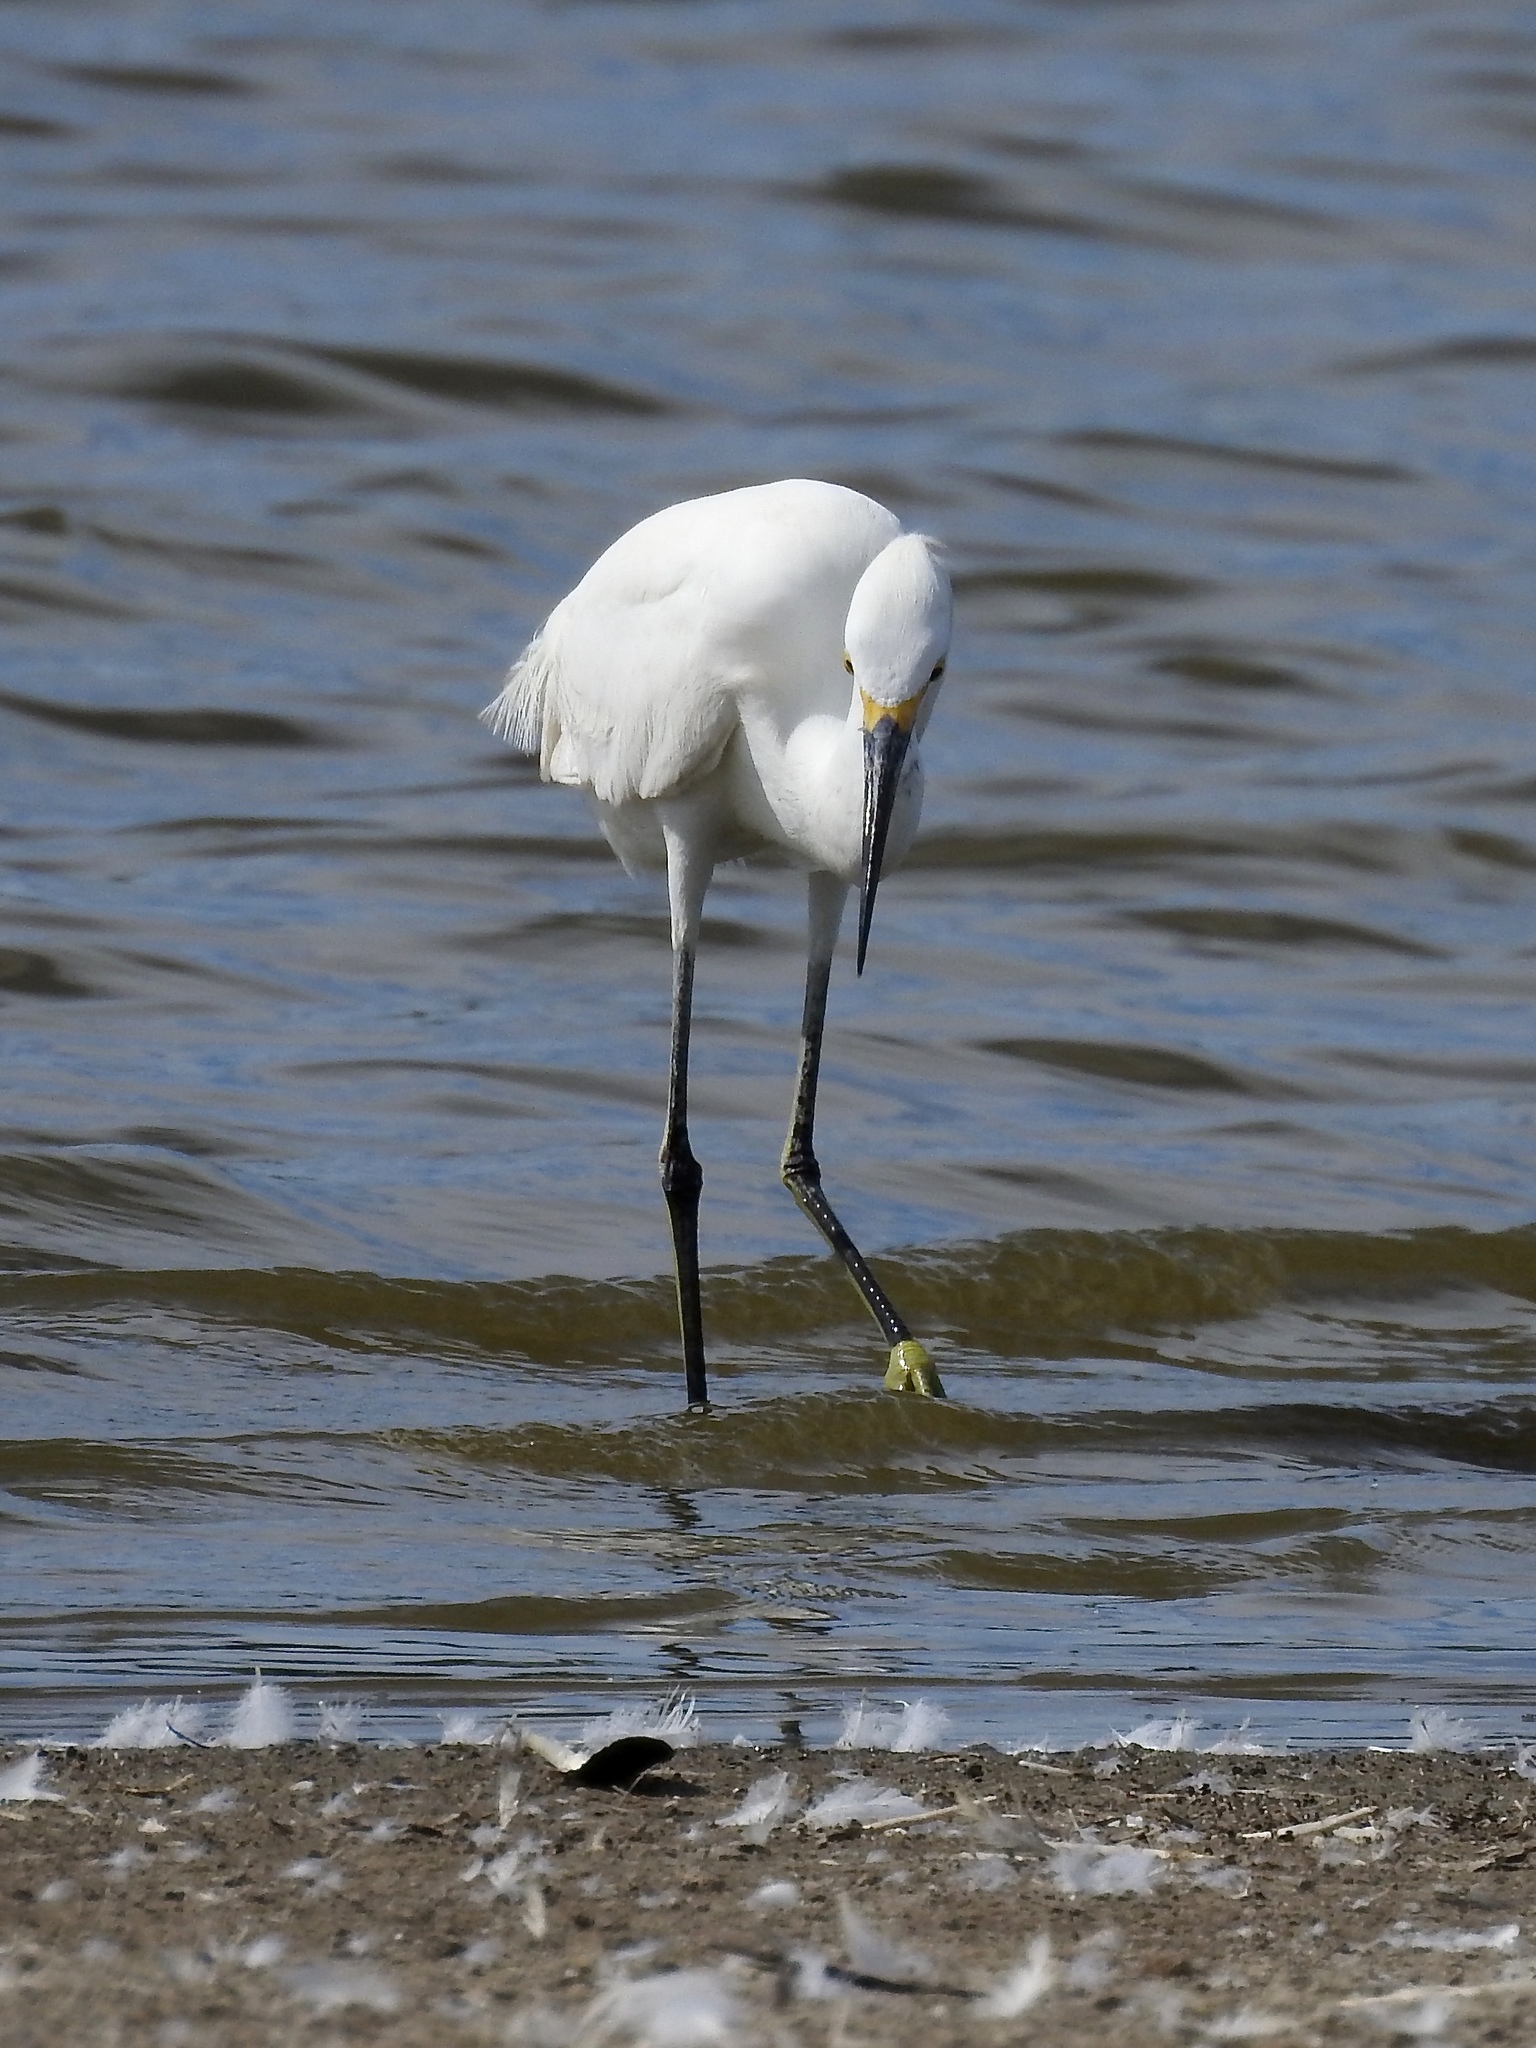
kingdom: Animalia
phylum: Chordata
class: Aves
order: Pelecaniformes
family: Ardeidae
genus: Egretta
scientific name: Egretta thula
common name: Snowy egret
